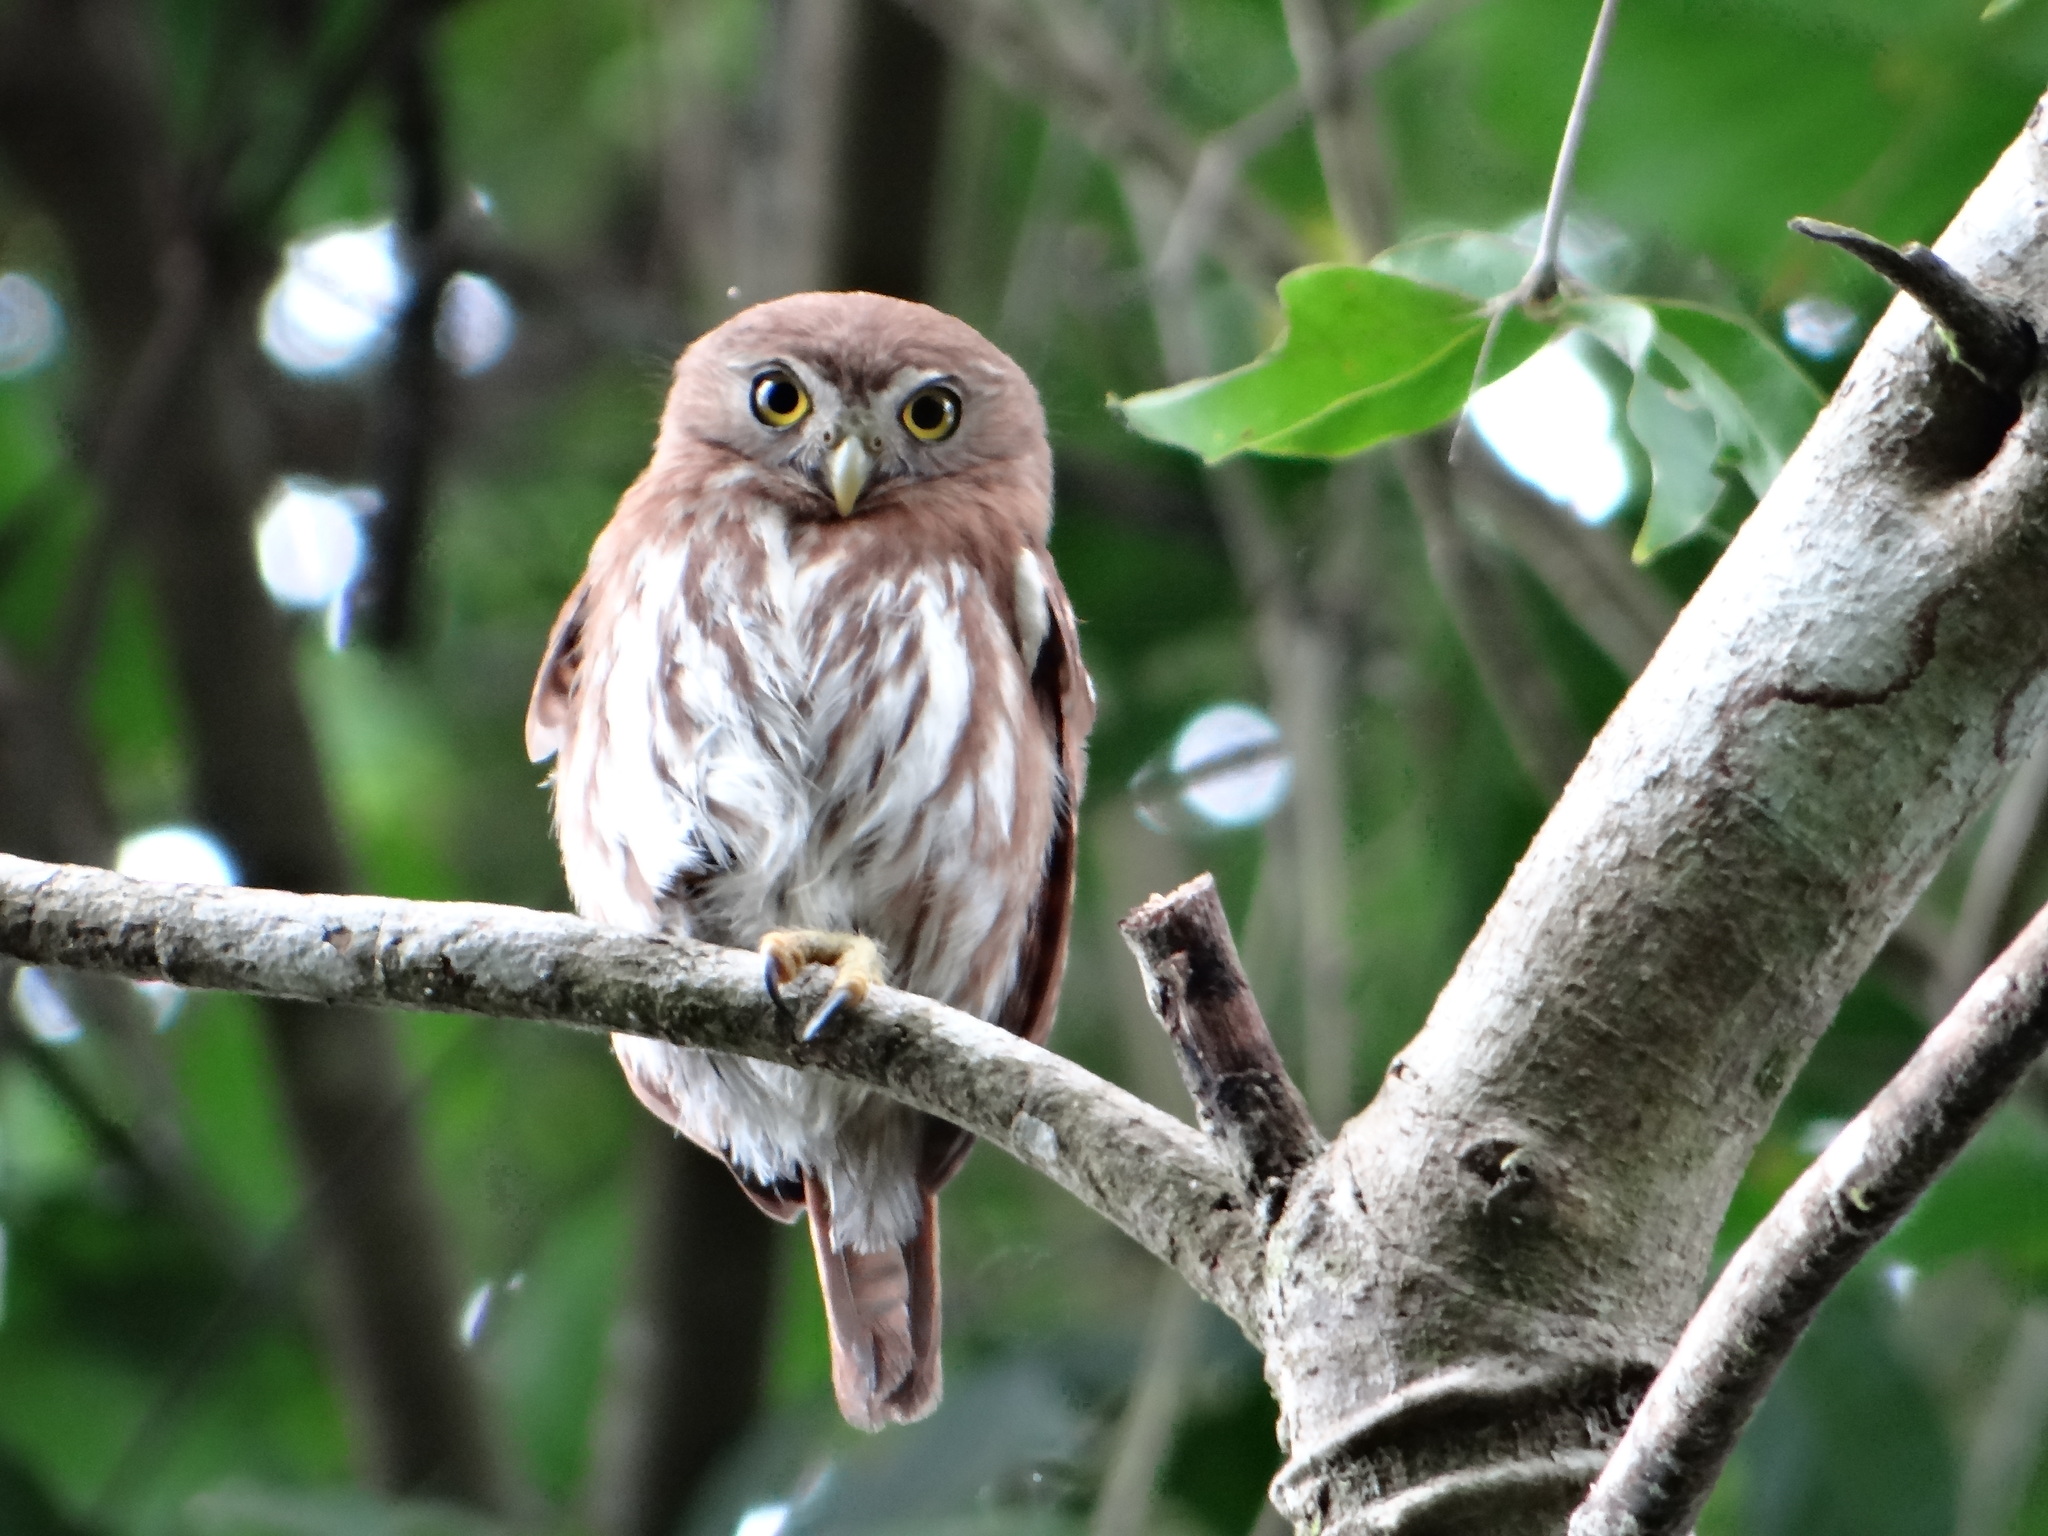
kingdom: Animalia
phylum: Chordata
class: Aves
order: Strigiformes
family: Strigidae
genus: Glaucidium
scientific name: Glaucidium brasilianum
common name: Ferruginous pygmy-owl
